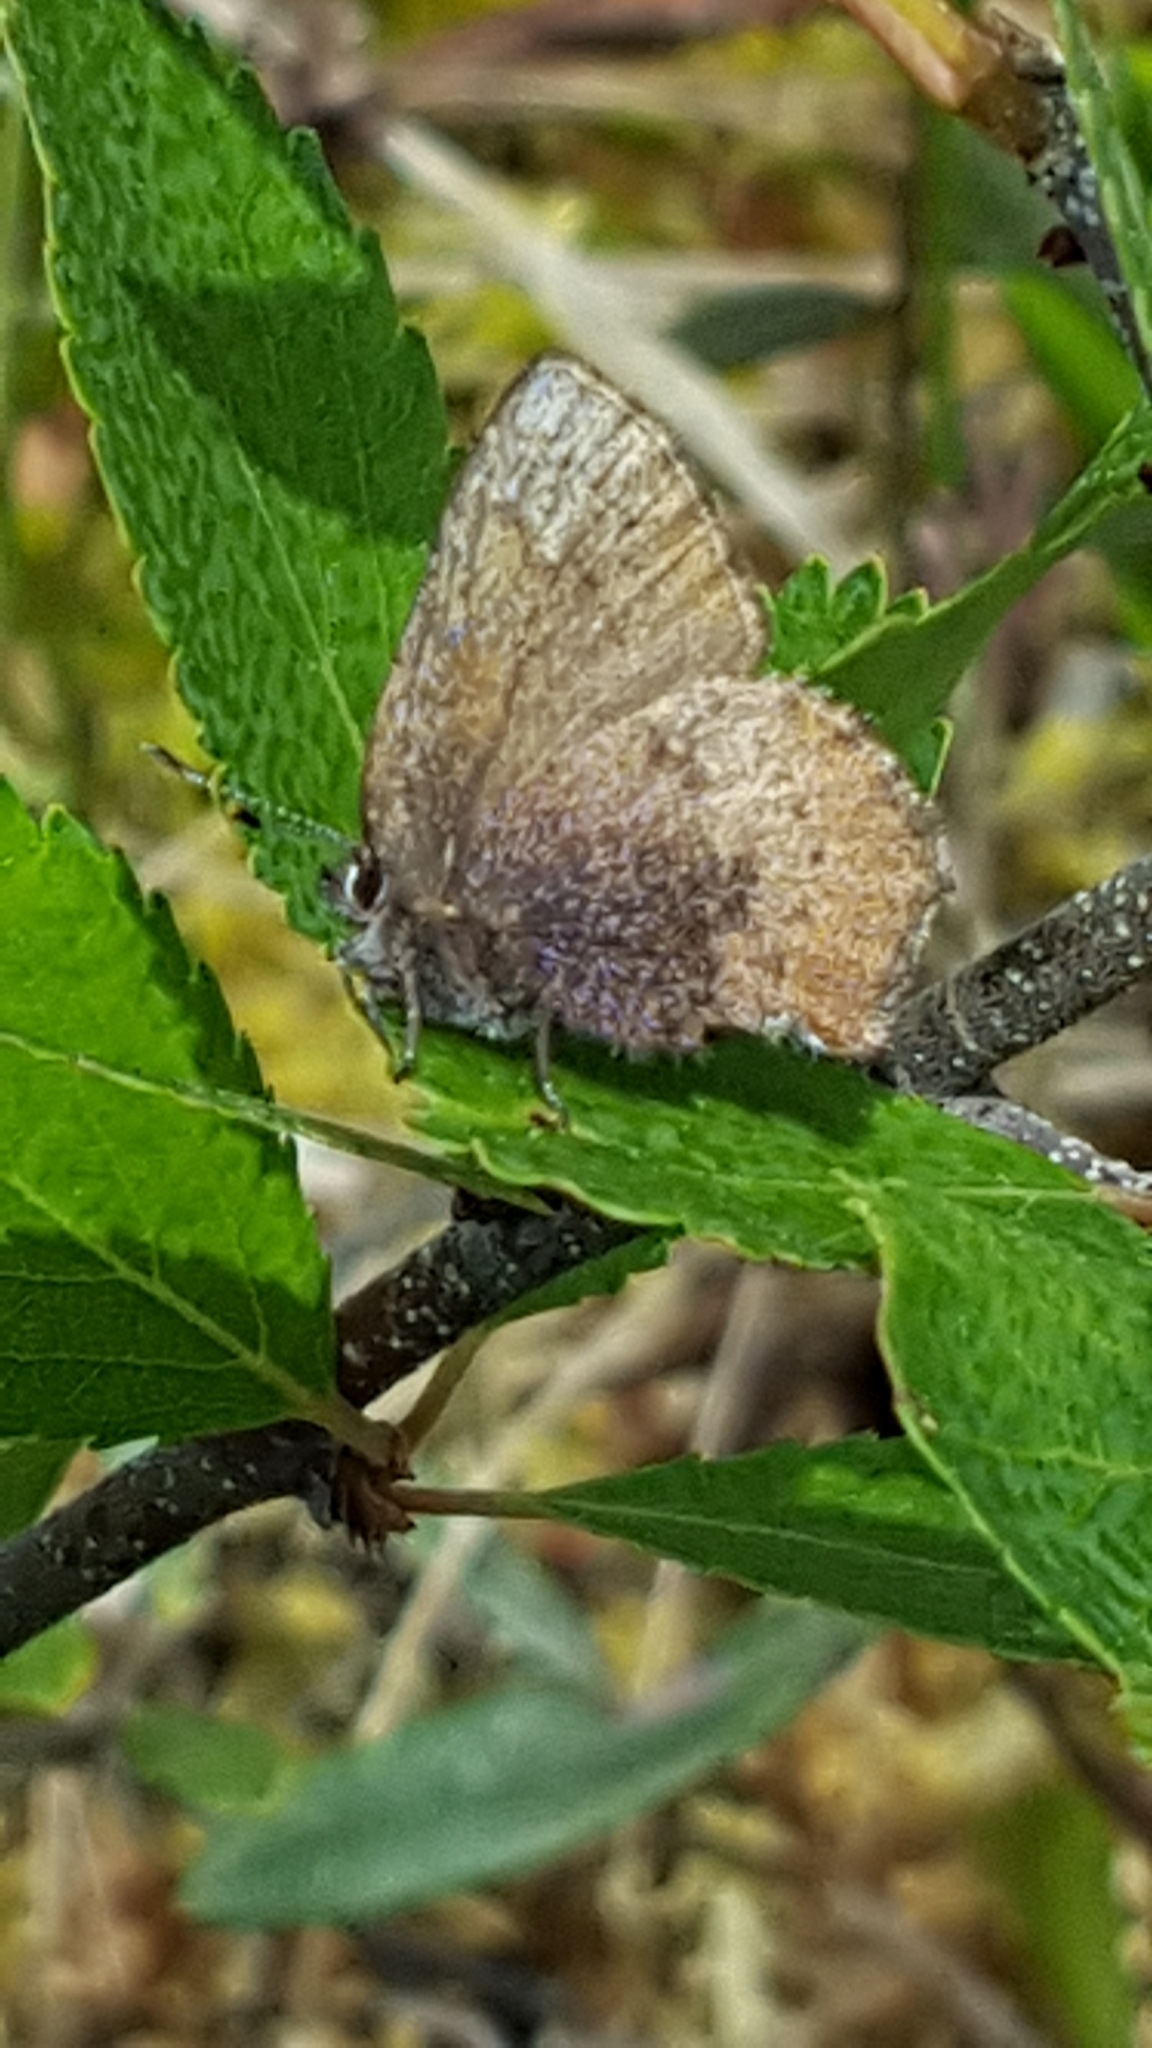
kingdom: Animalia
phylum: Arthropoda
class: Insecta
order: Lepidoptera
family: Lycaenidae
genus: Incisalia
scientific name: Incisalia irioides
